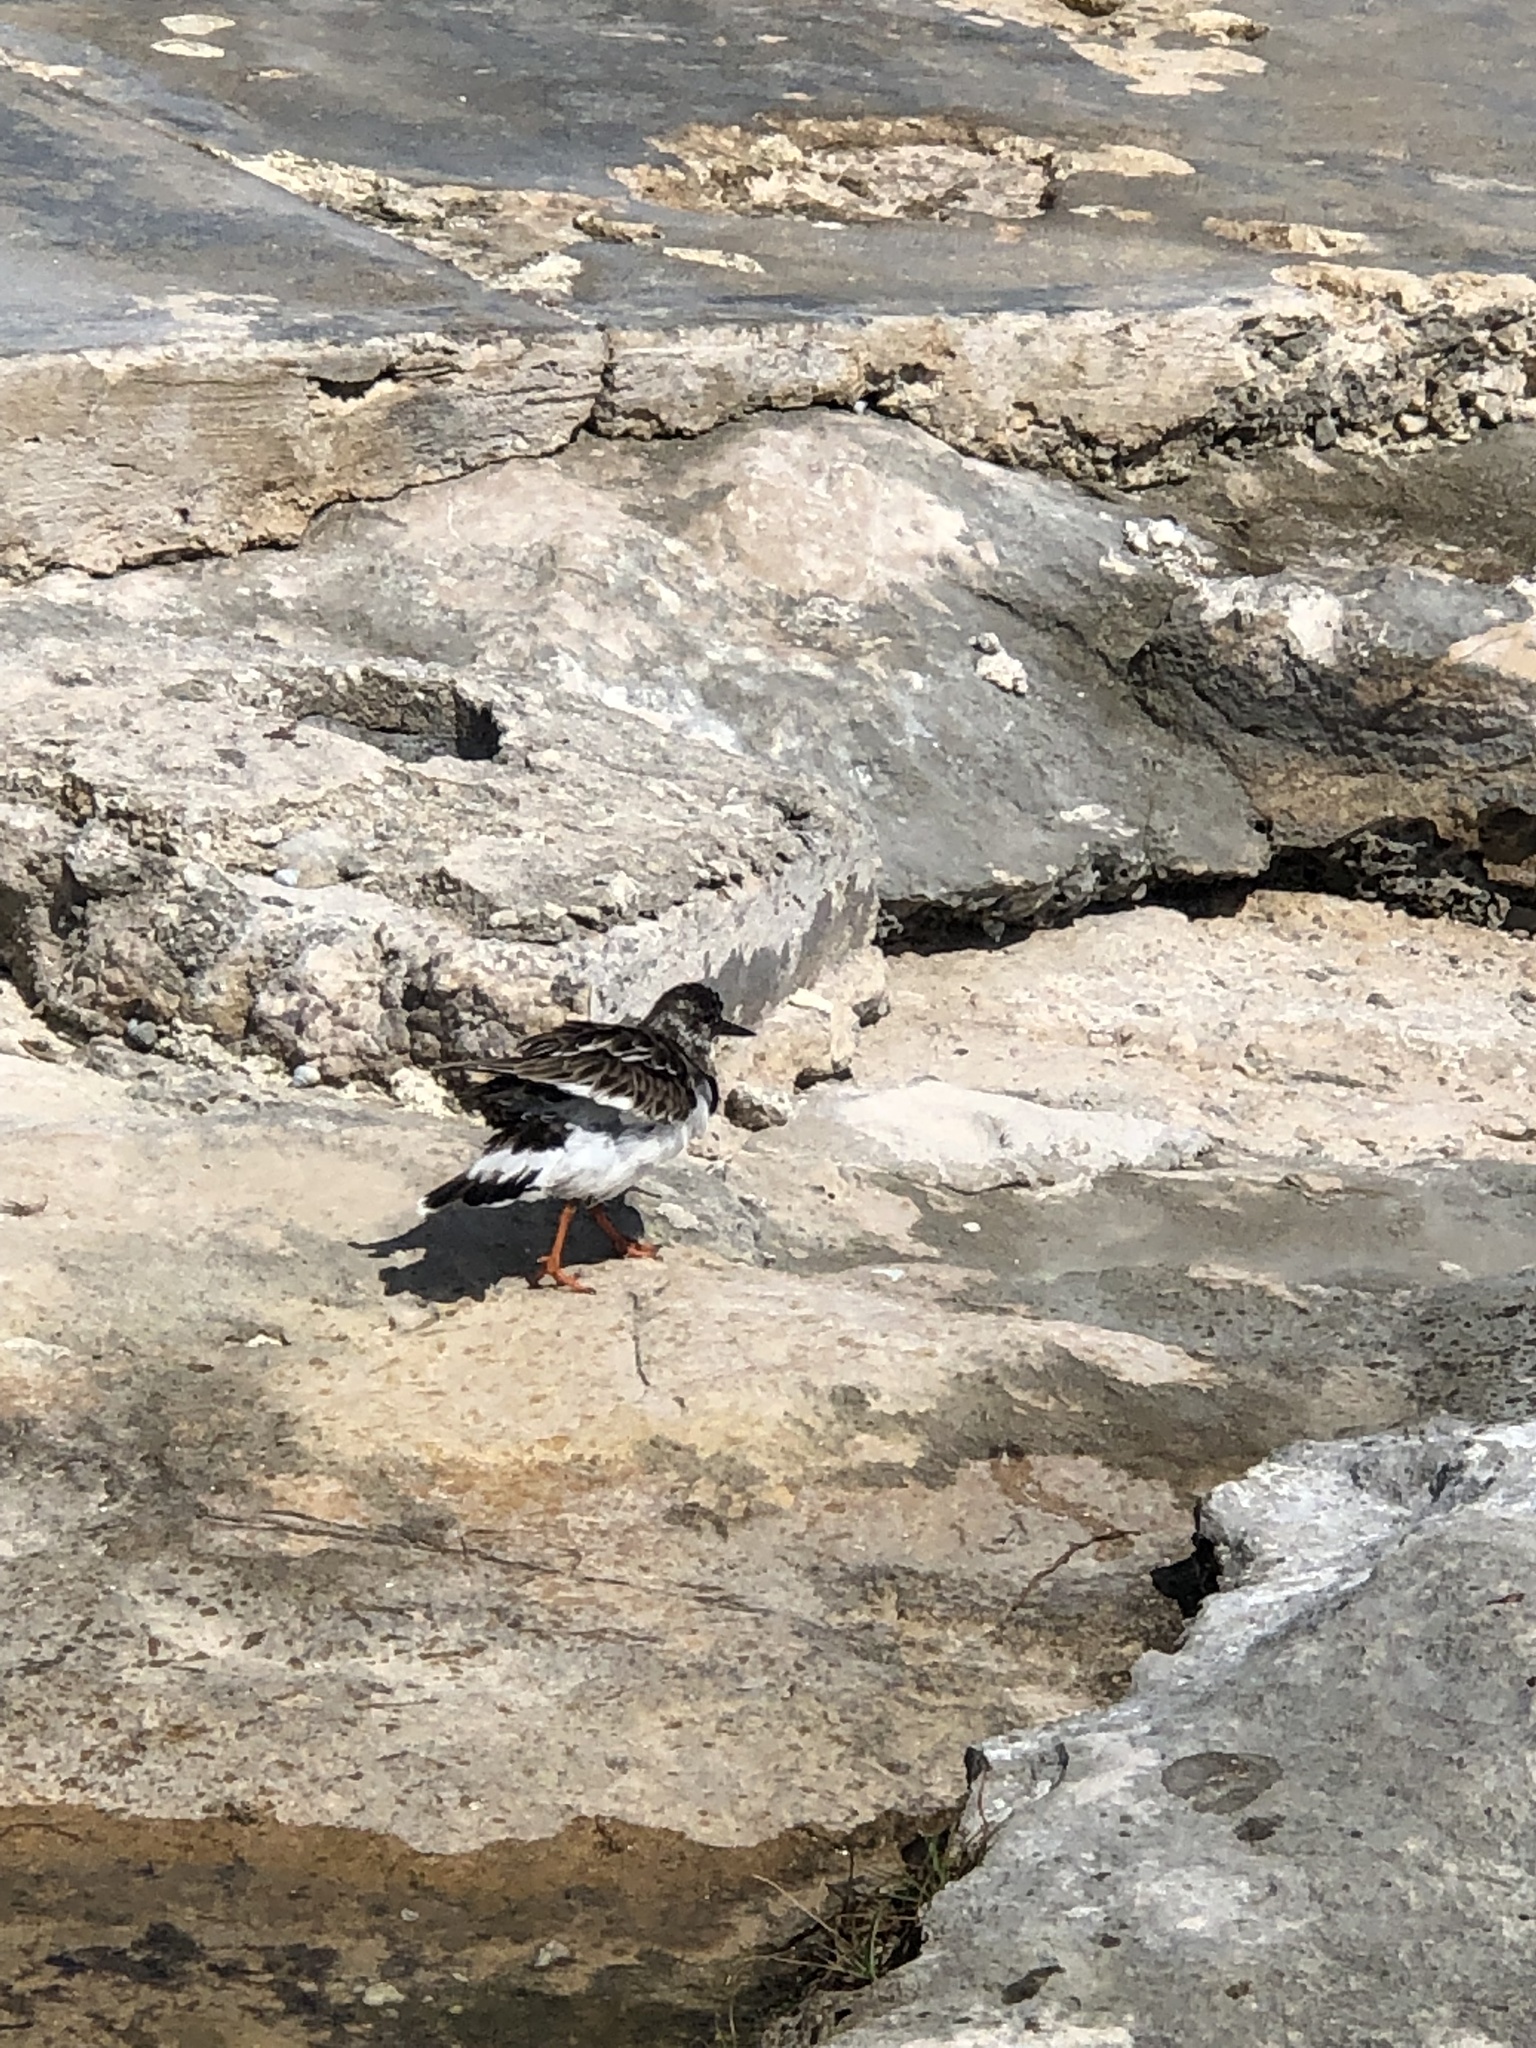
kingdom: Animalia
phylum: Chordata
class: Aves
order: Charadriiformes
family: Scolopacidae
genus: Arenaria
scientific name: Arenaria interpres
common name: Ruddy turnstone
